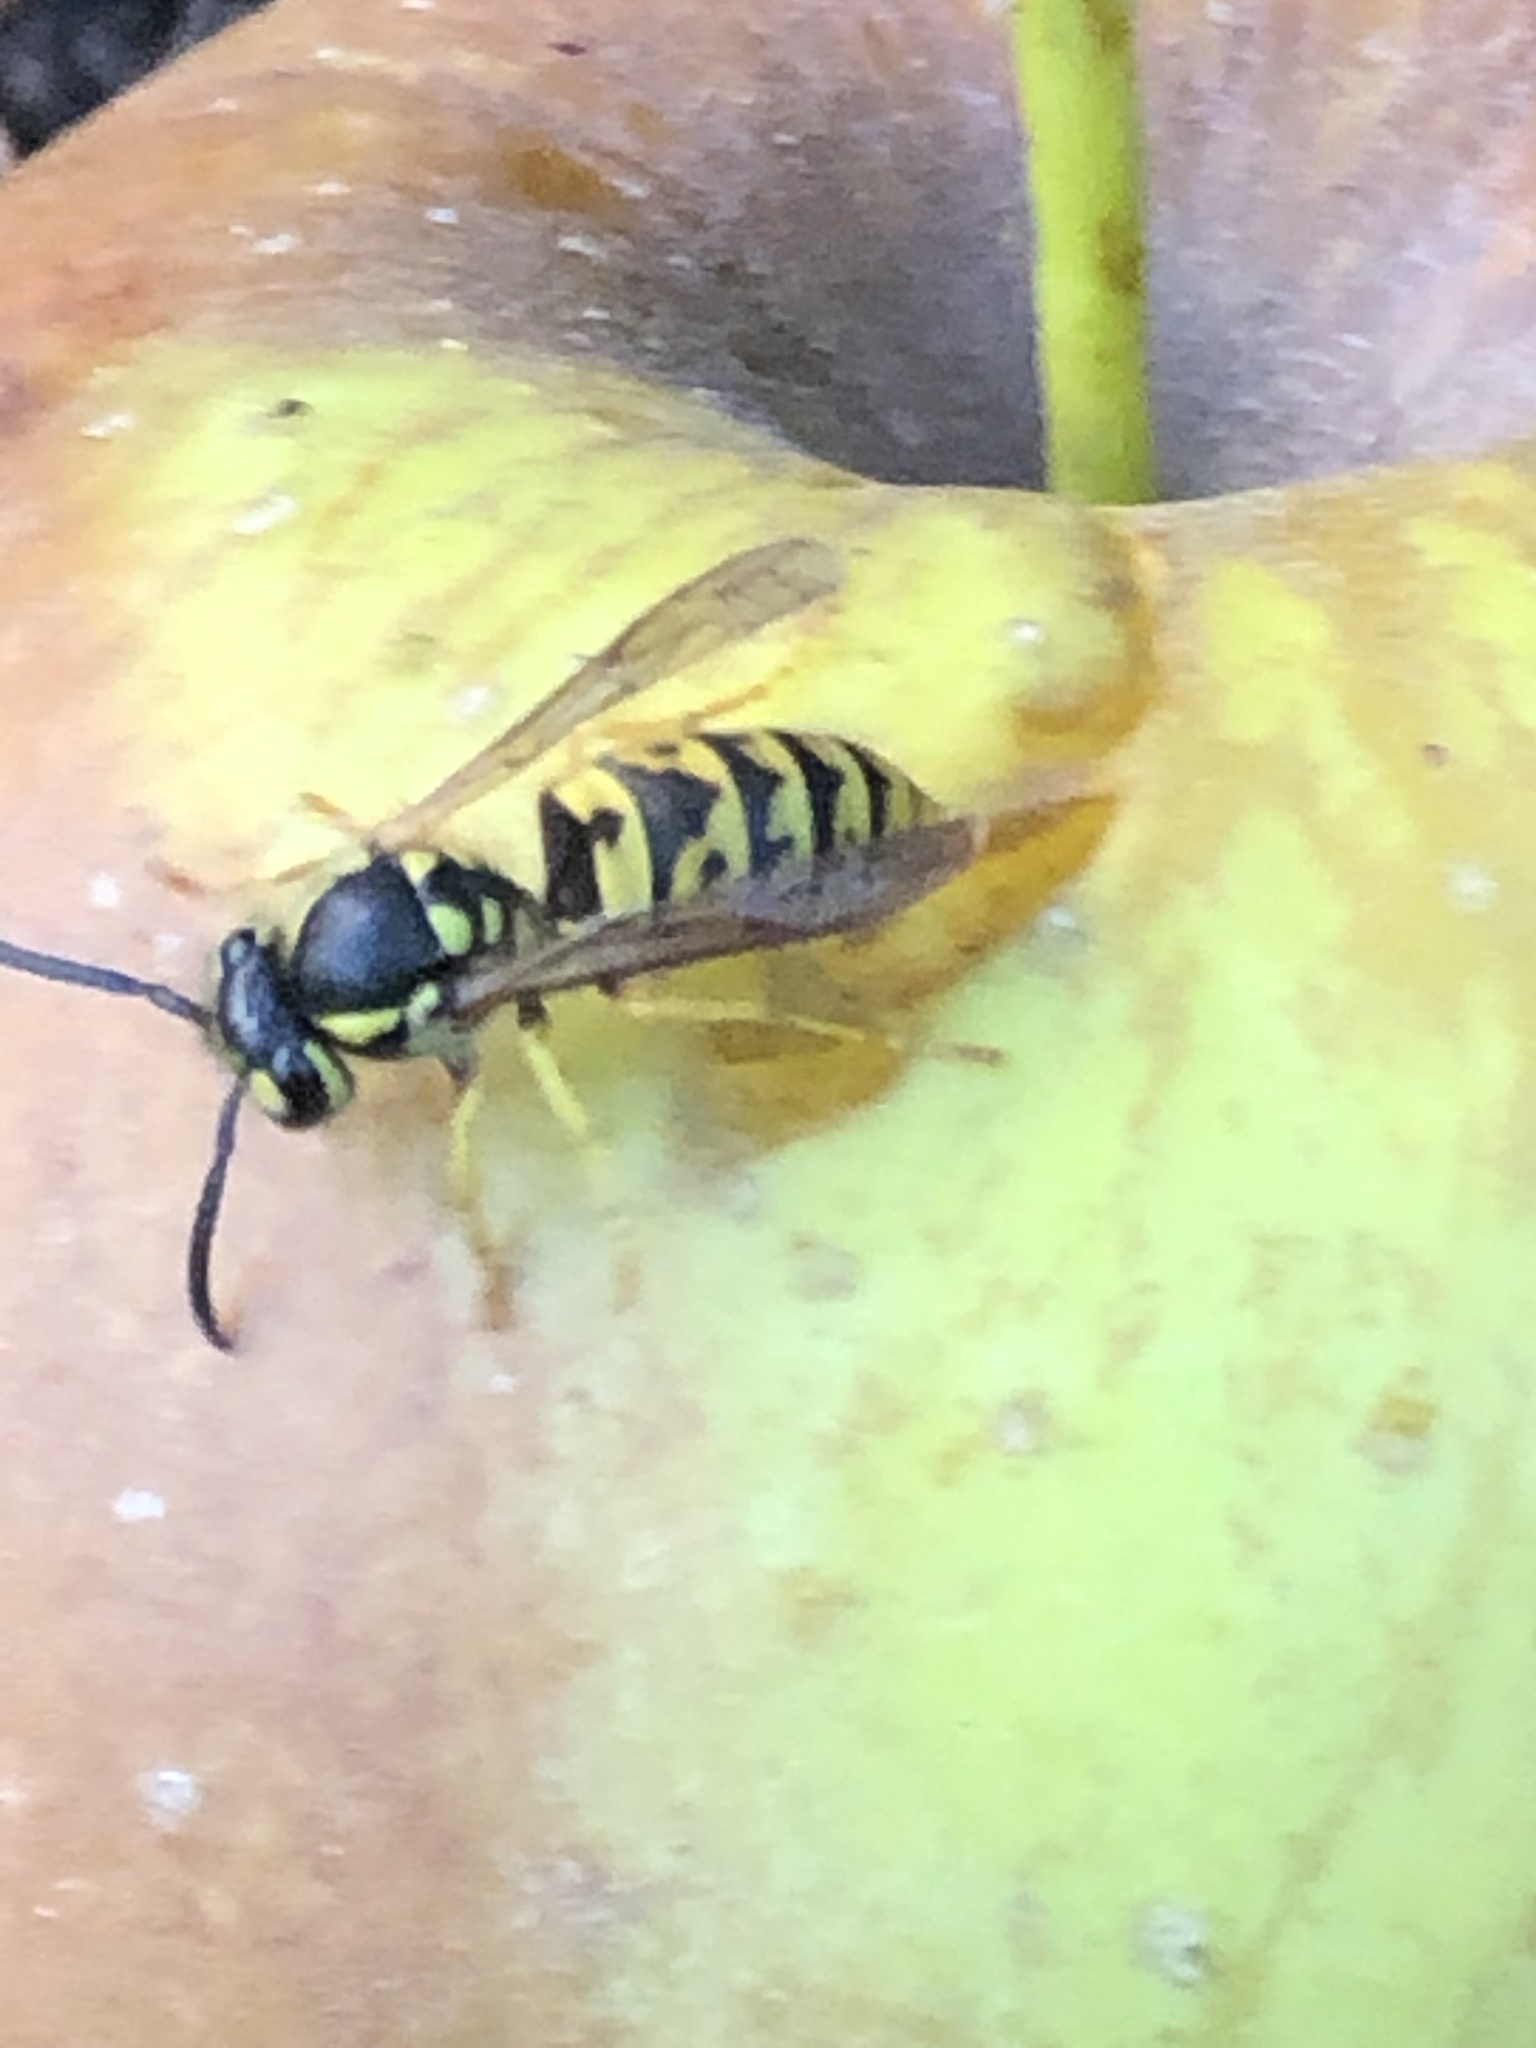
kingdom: Animalia
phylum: Arthropoda
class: Insecta
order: Hymenoptera
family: Vespidae
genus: Vespula
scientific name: Vespula germanica
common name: German wasp
